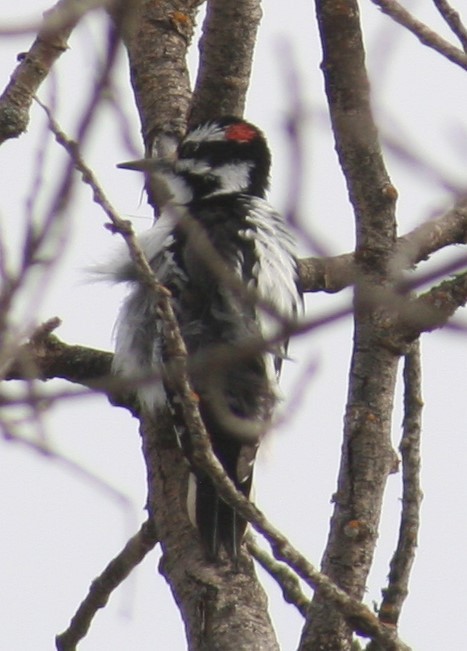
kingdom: Animalia
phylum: Chordata
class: Aves
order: Piciformes
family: Picidae
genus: Leuconotopicus
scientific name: Leuconotopicus villosus
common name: Hairy woodpecker
